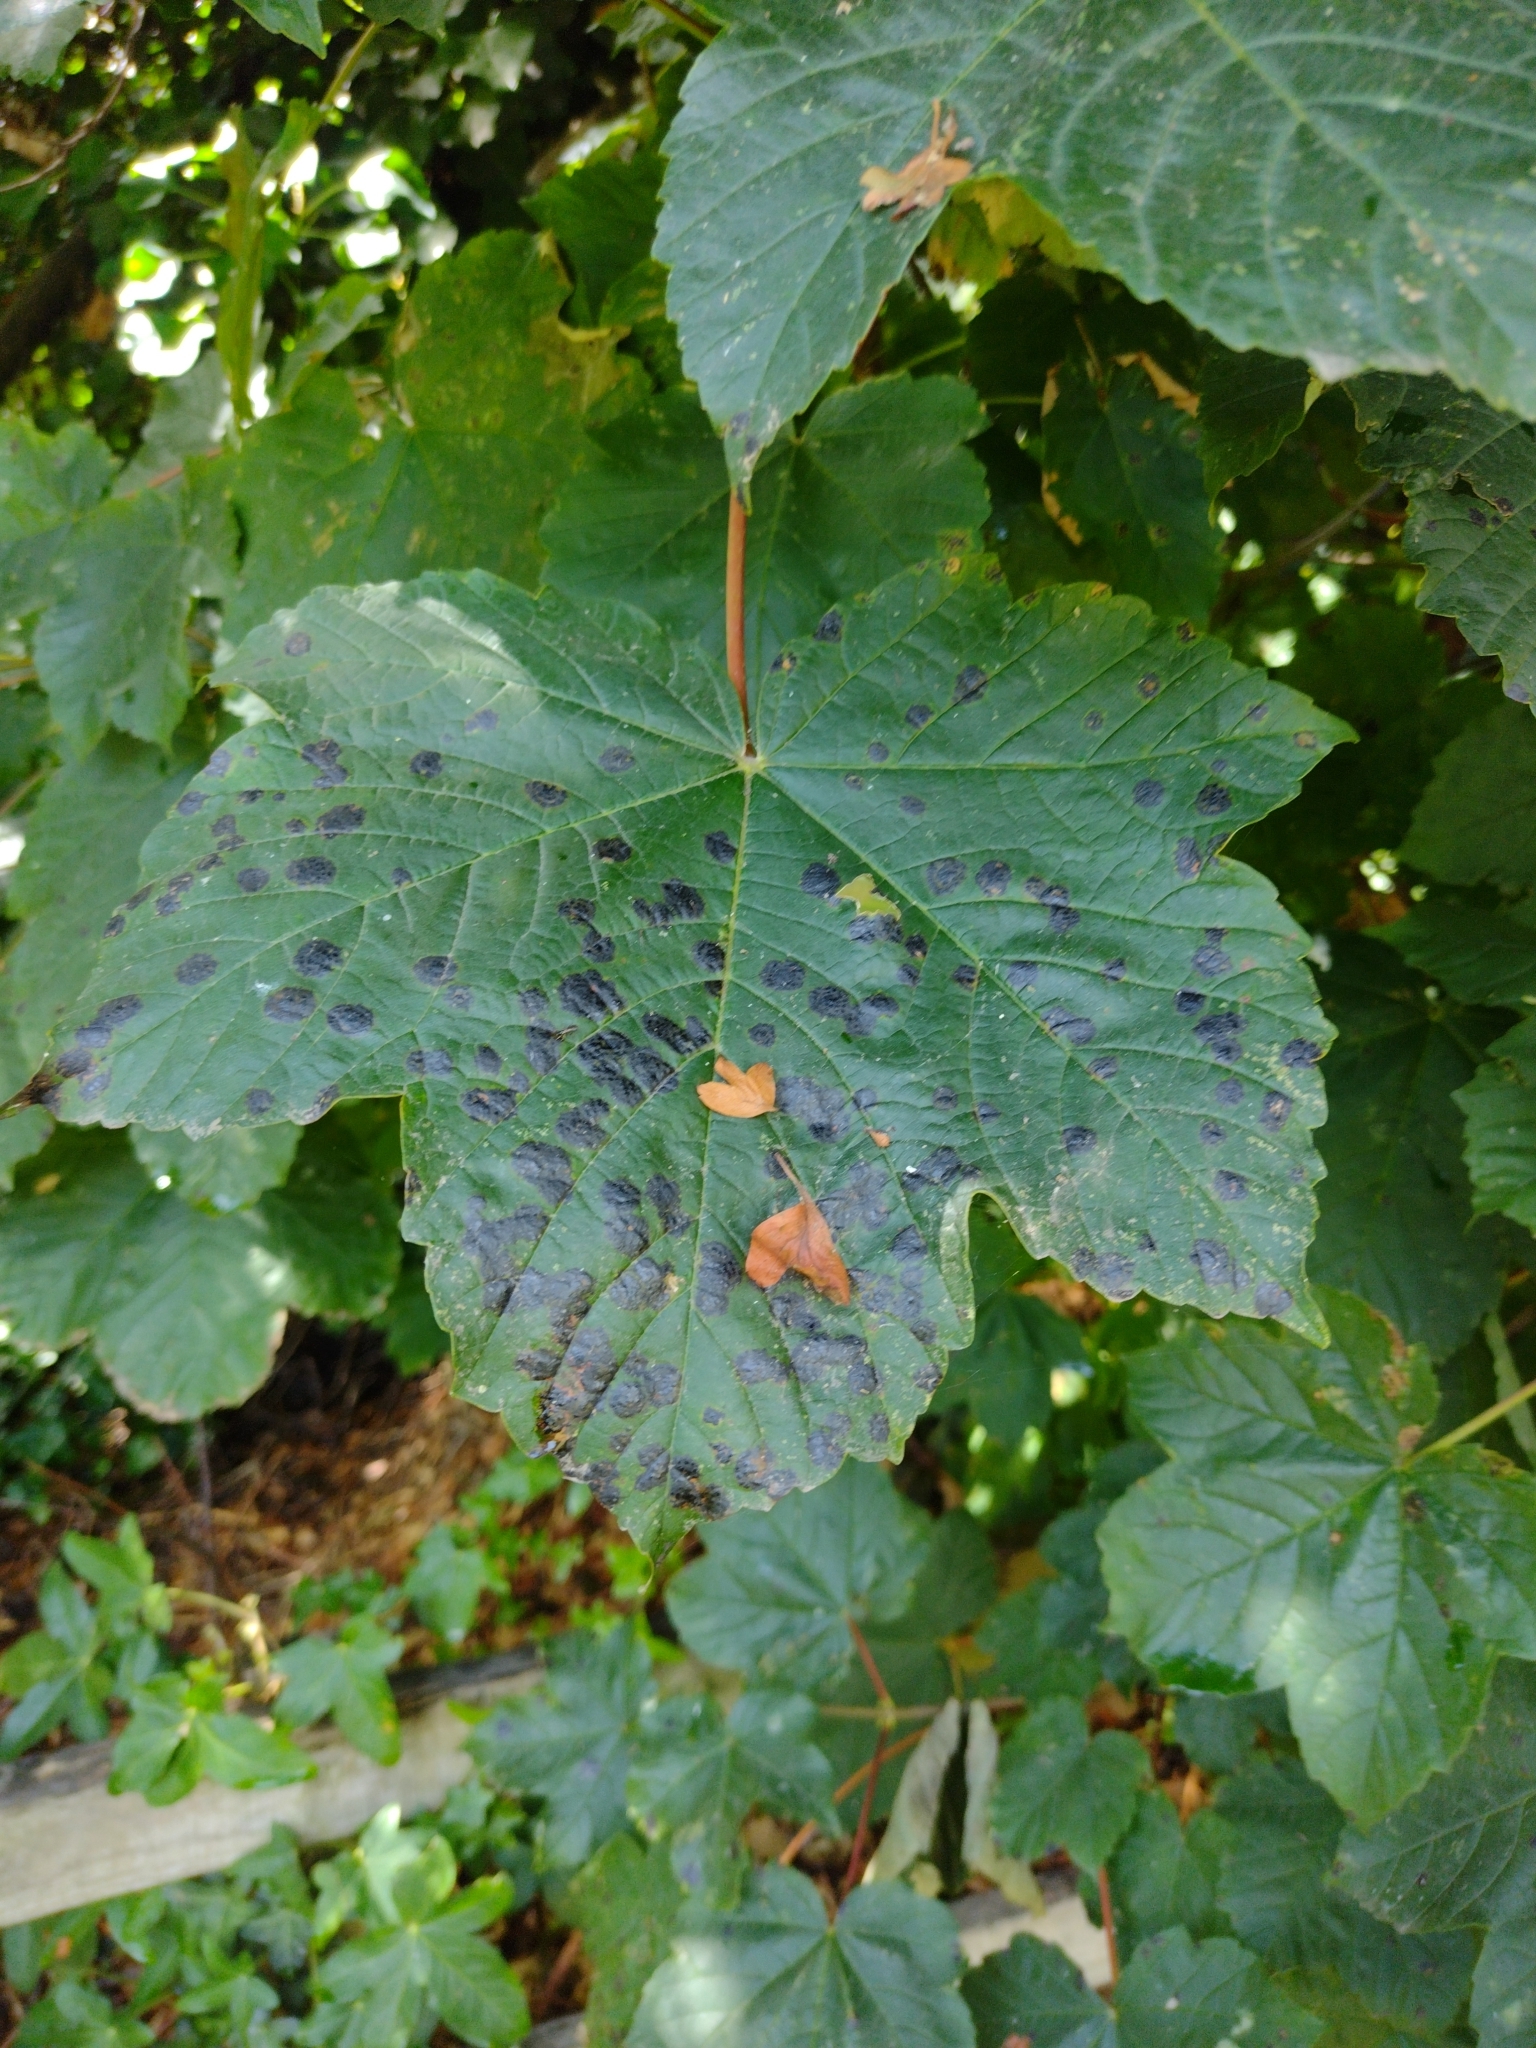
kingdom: Fungi
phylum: Ascomycota
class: Leotiomycetes
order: Rhytismatales
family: Rhytismataceae
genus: Rhytisma
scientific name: Rhytisma acerinum
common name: European tar spot
